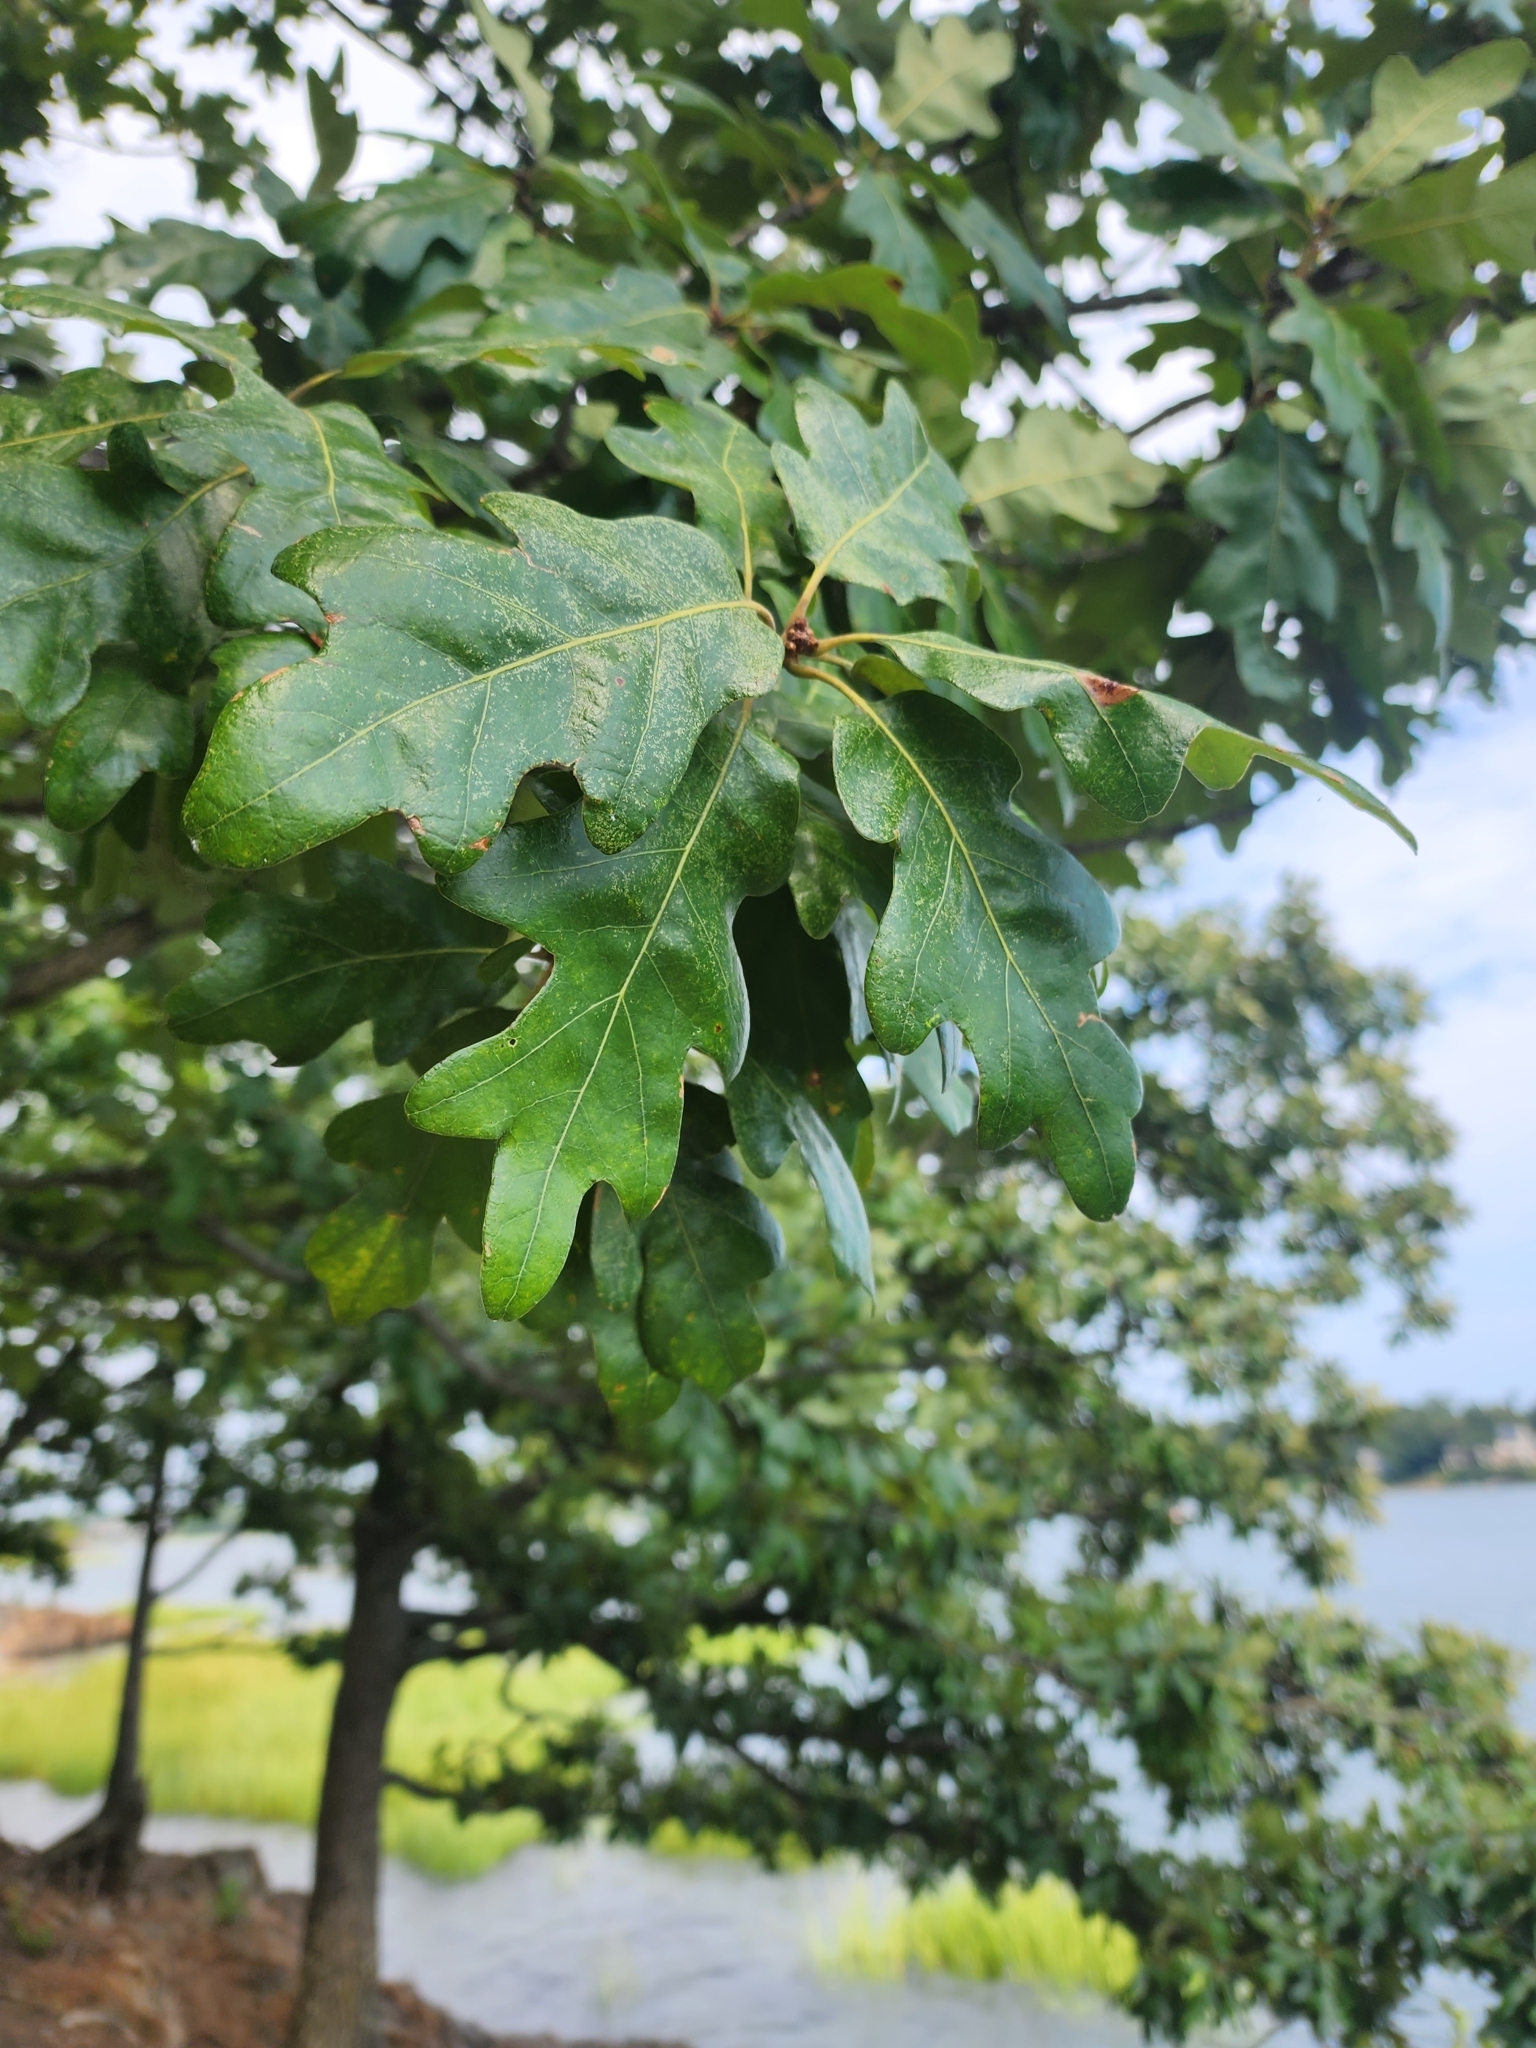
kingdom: Plantae
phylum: Tracheophyta
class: Magnoliopsida
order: Fagales
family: Fagaceae
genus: Quercus
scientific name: Quercus stellata
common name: Post oak
